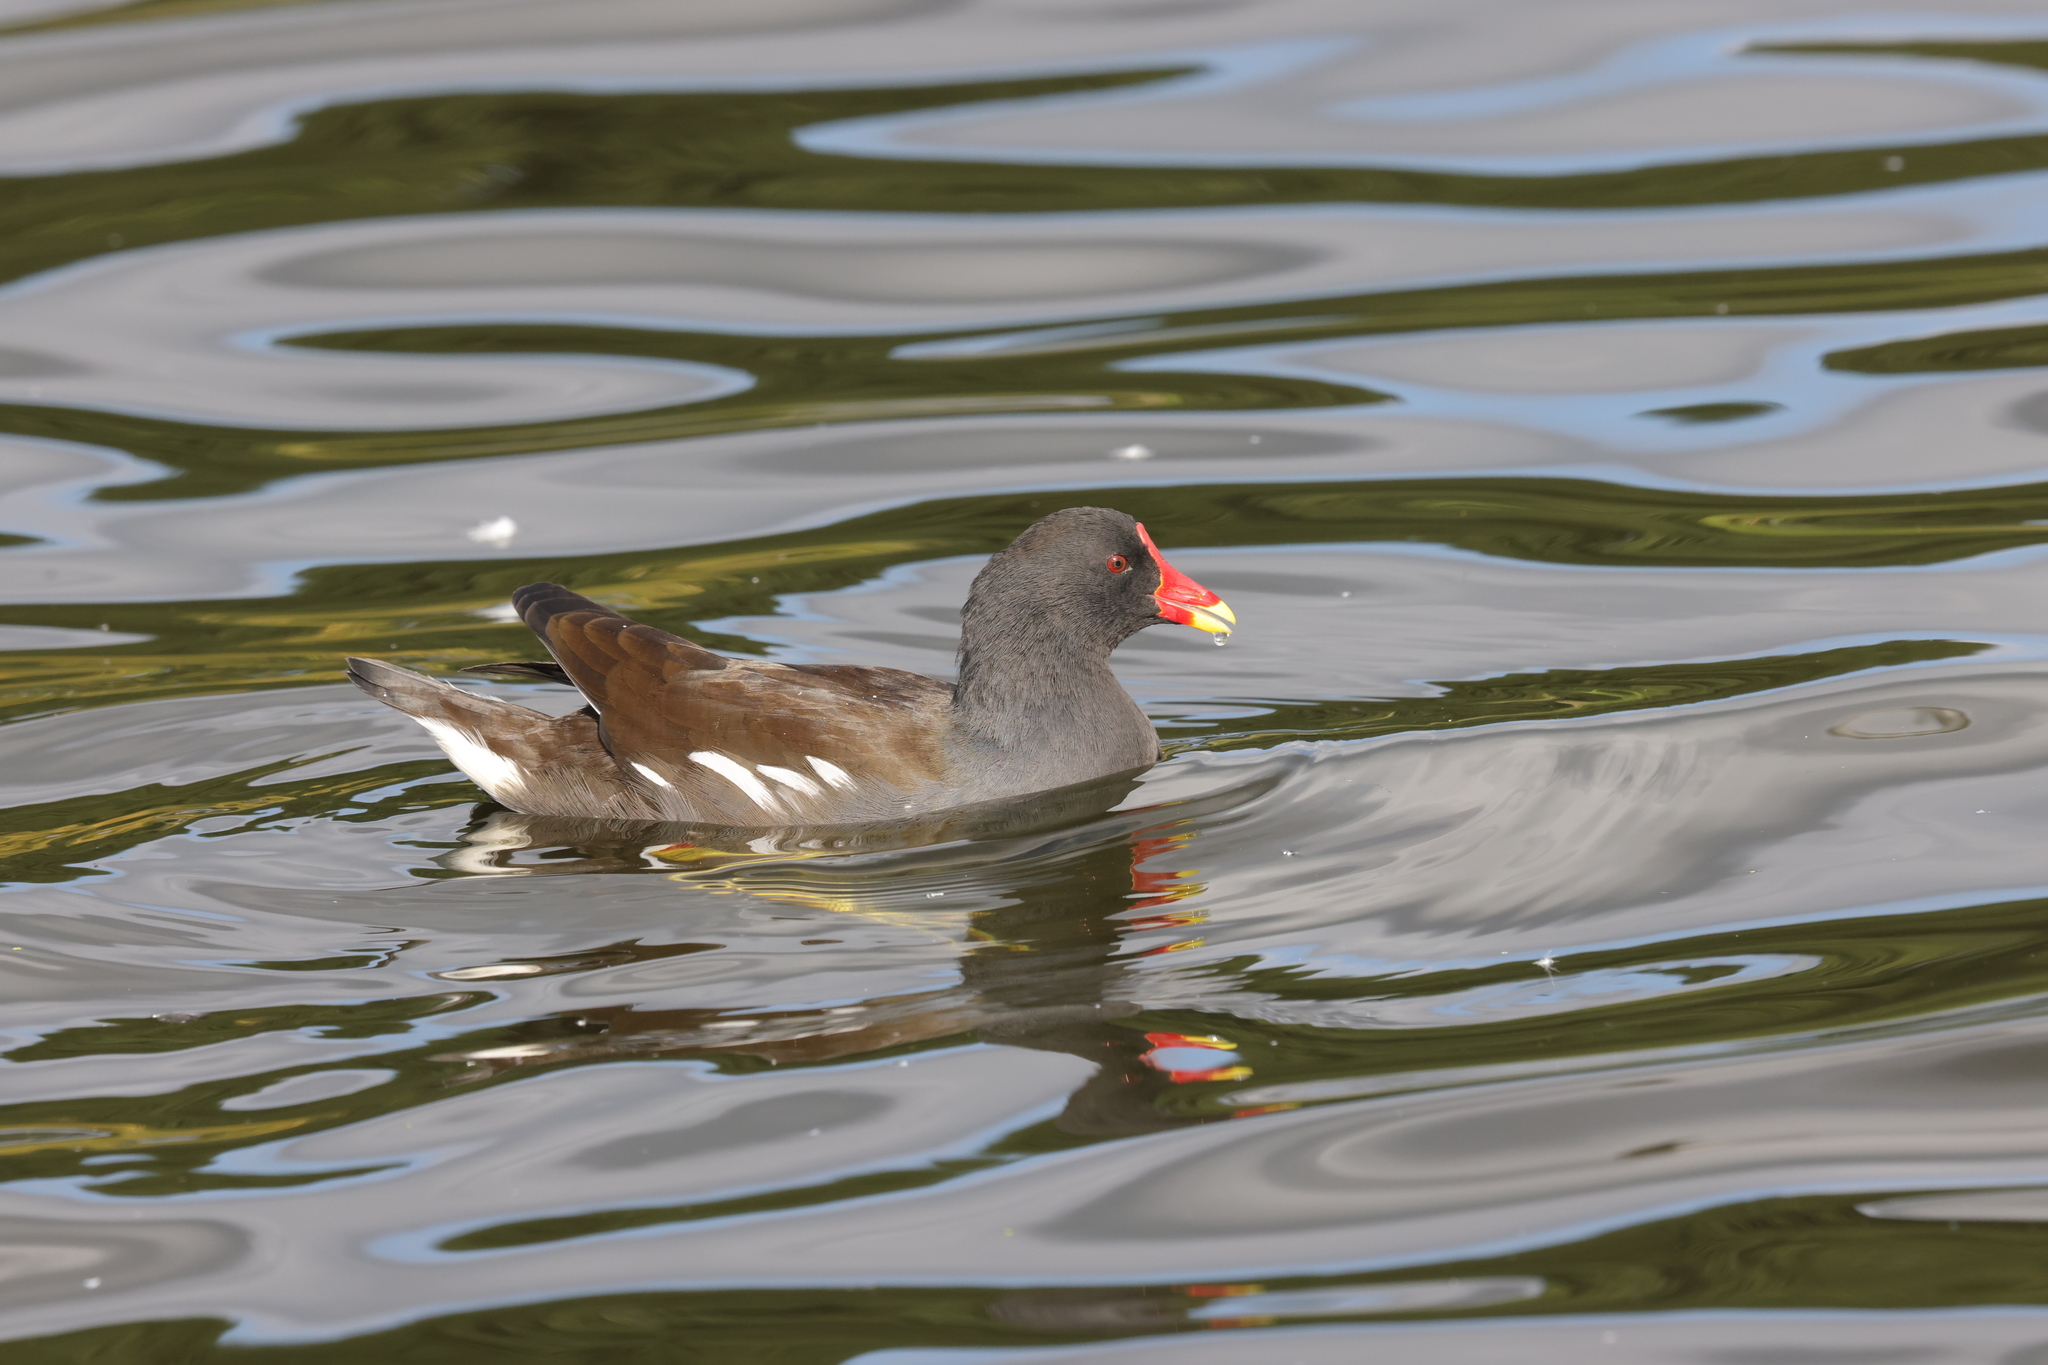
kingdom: Animalia
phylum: Chordata
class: Aves
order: Gruiformes
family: Rallidae
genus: Gallinula
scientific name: Gallinula chloropus
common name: Common moorhen
